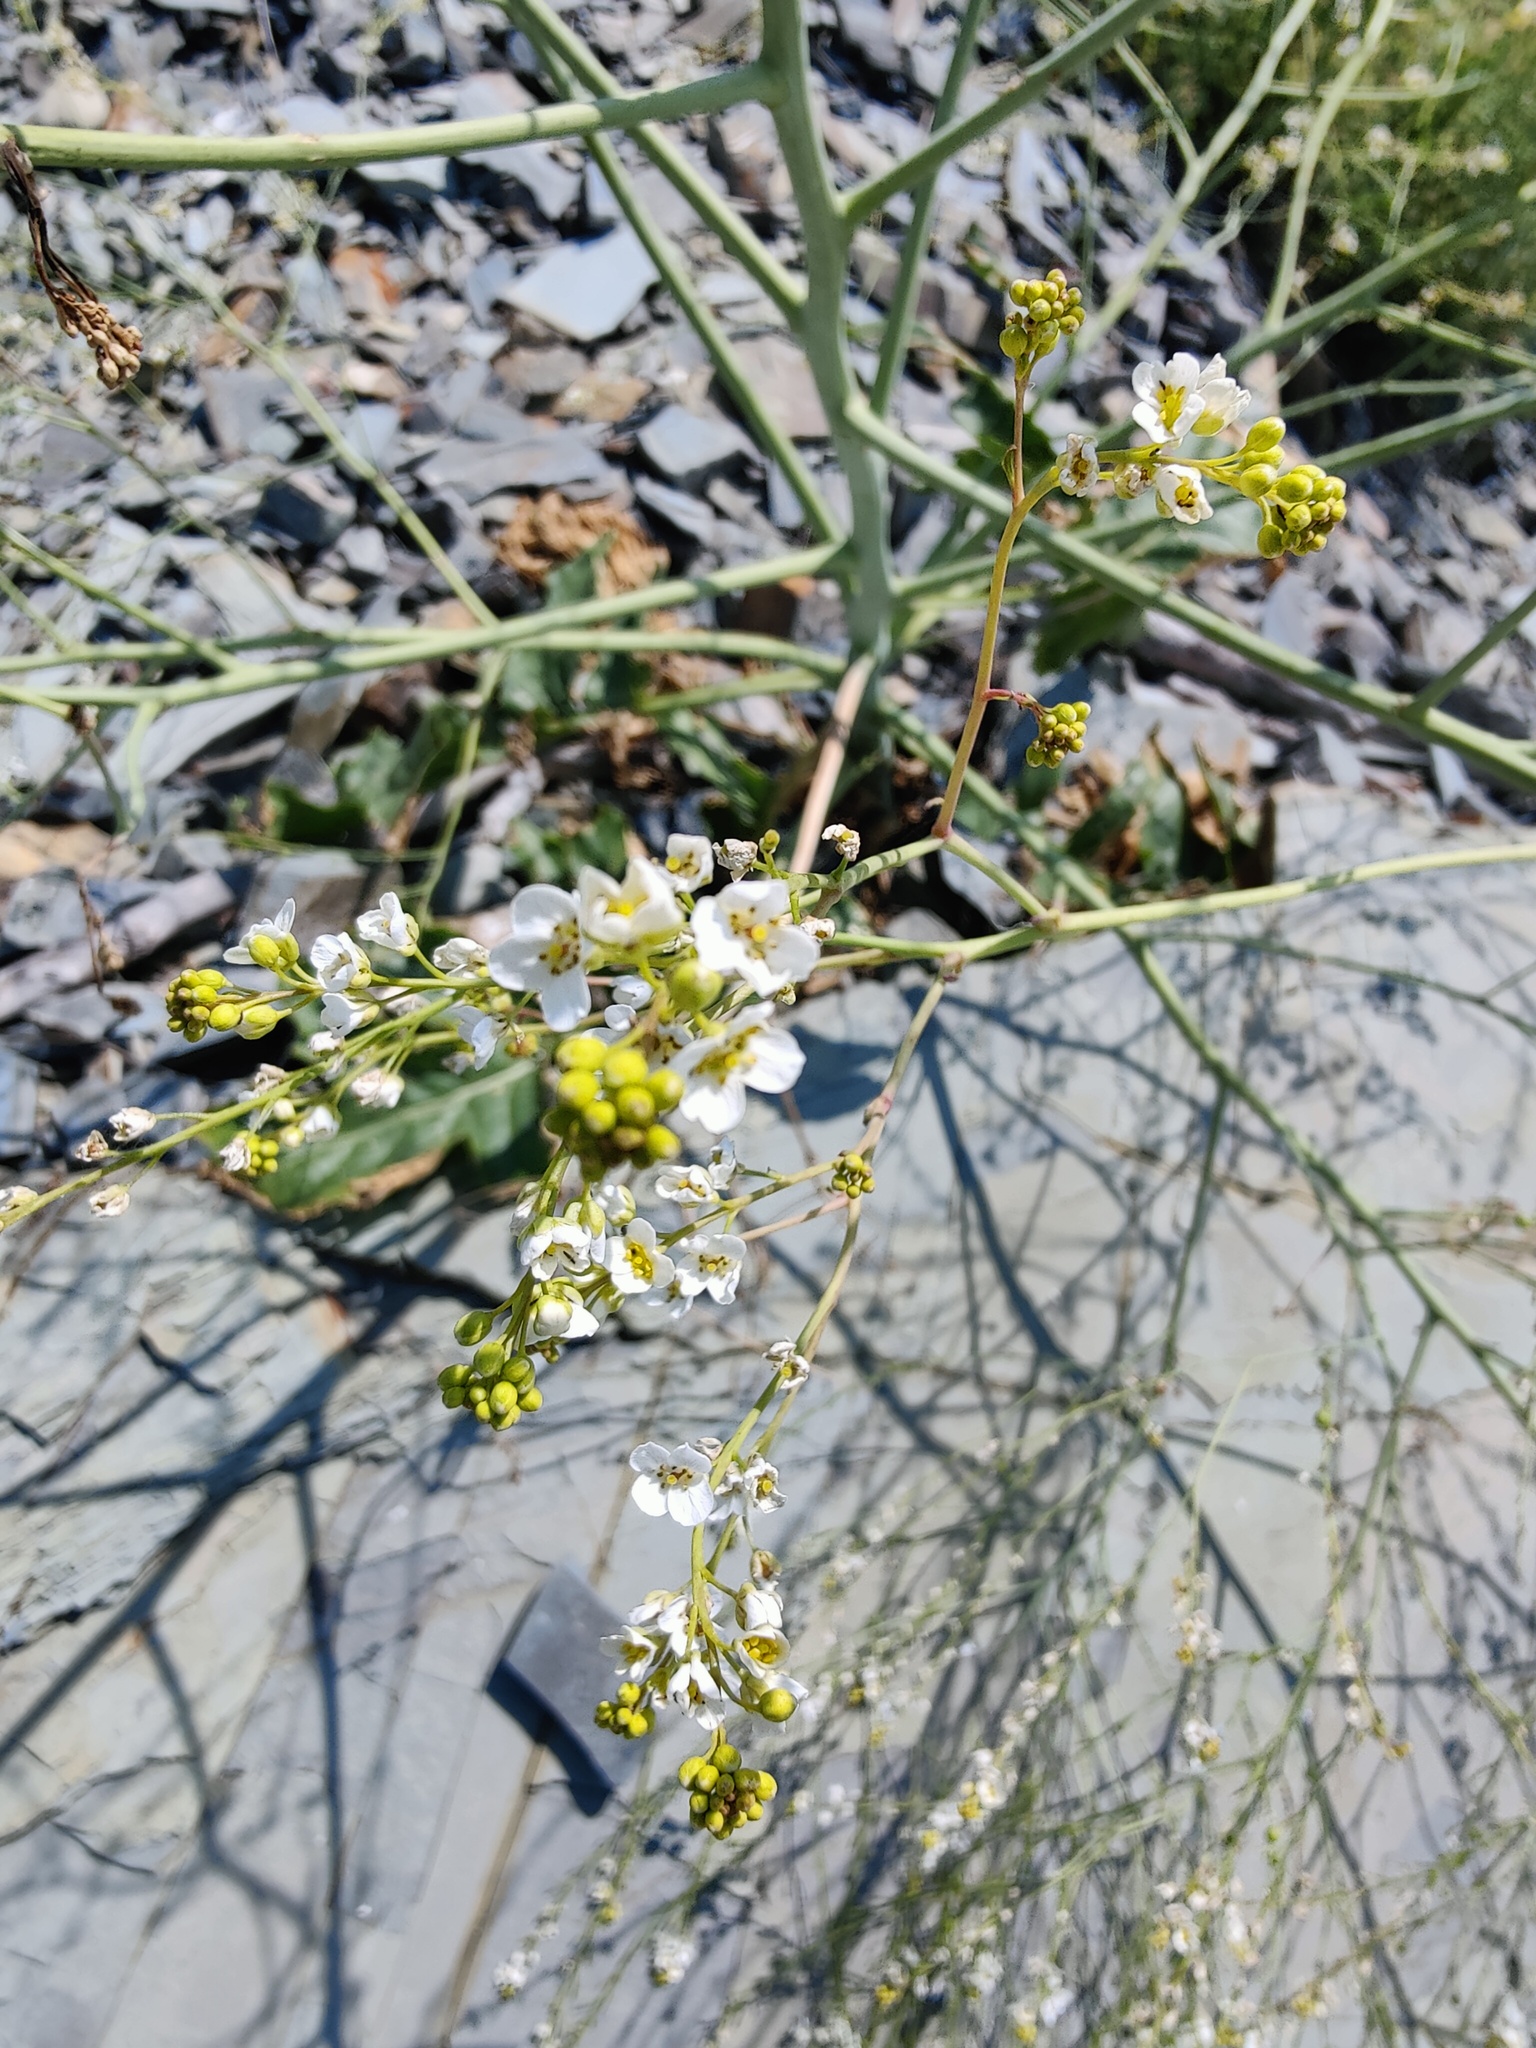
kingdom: Plantae
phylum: Tracheophyta
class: Magnoliopsida
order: Brassicales
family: Brassicaceae
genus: Crambe
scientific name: Crambe koktebelica
